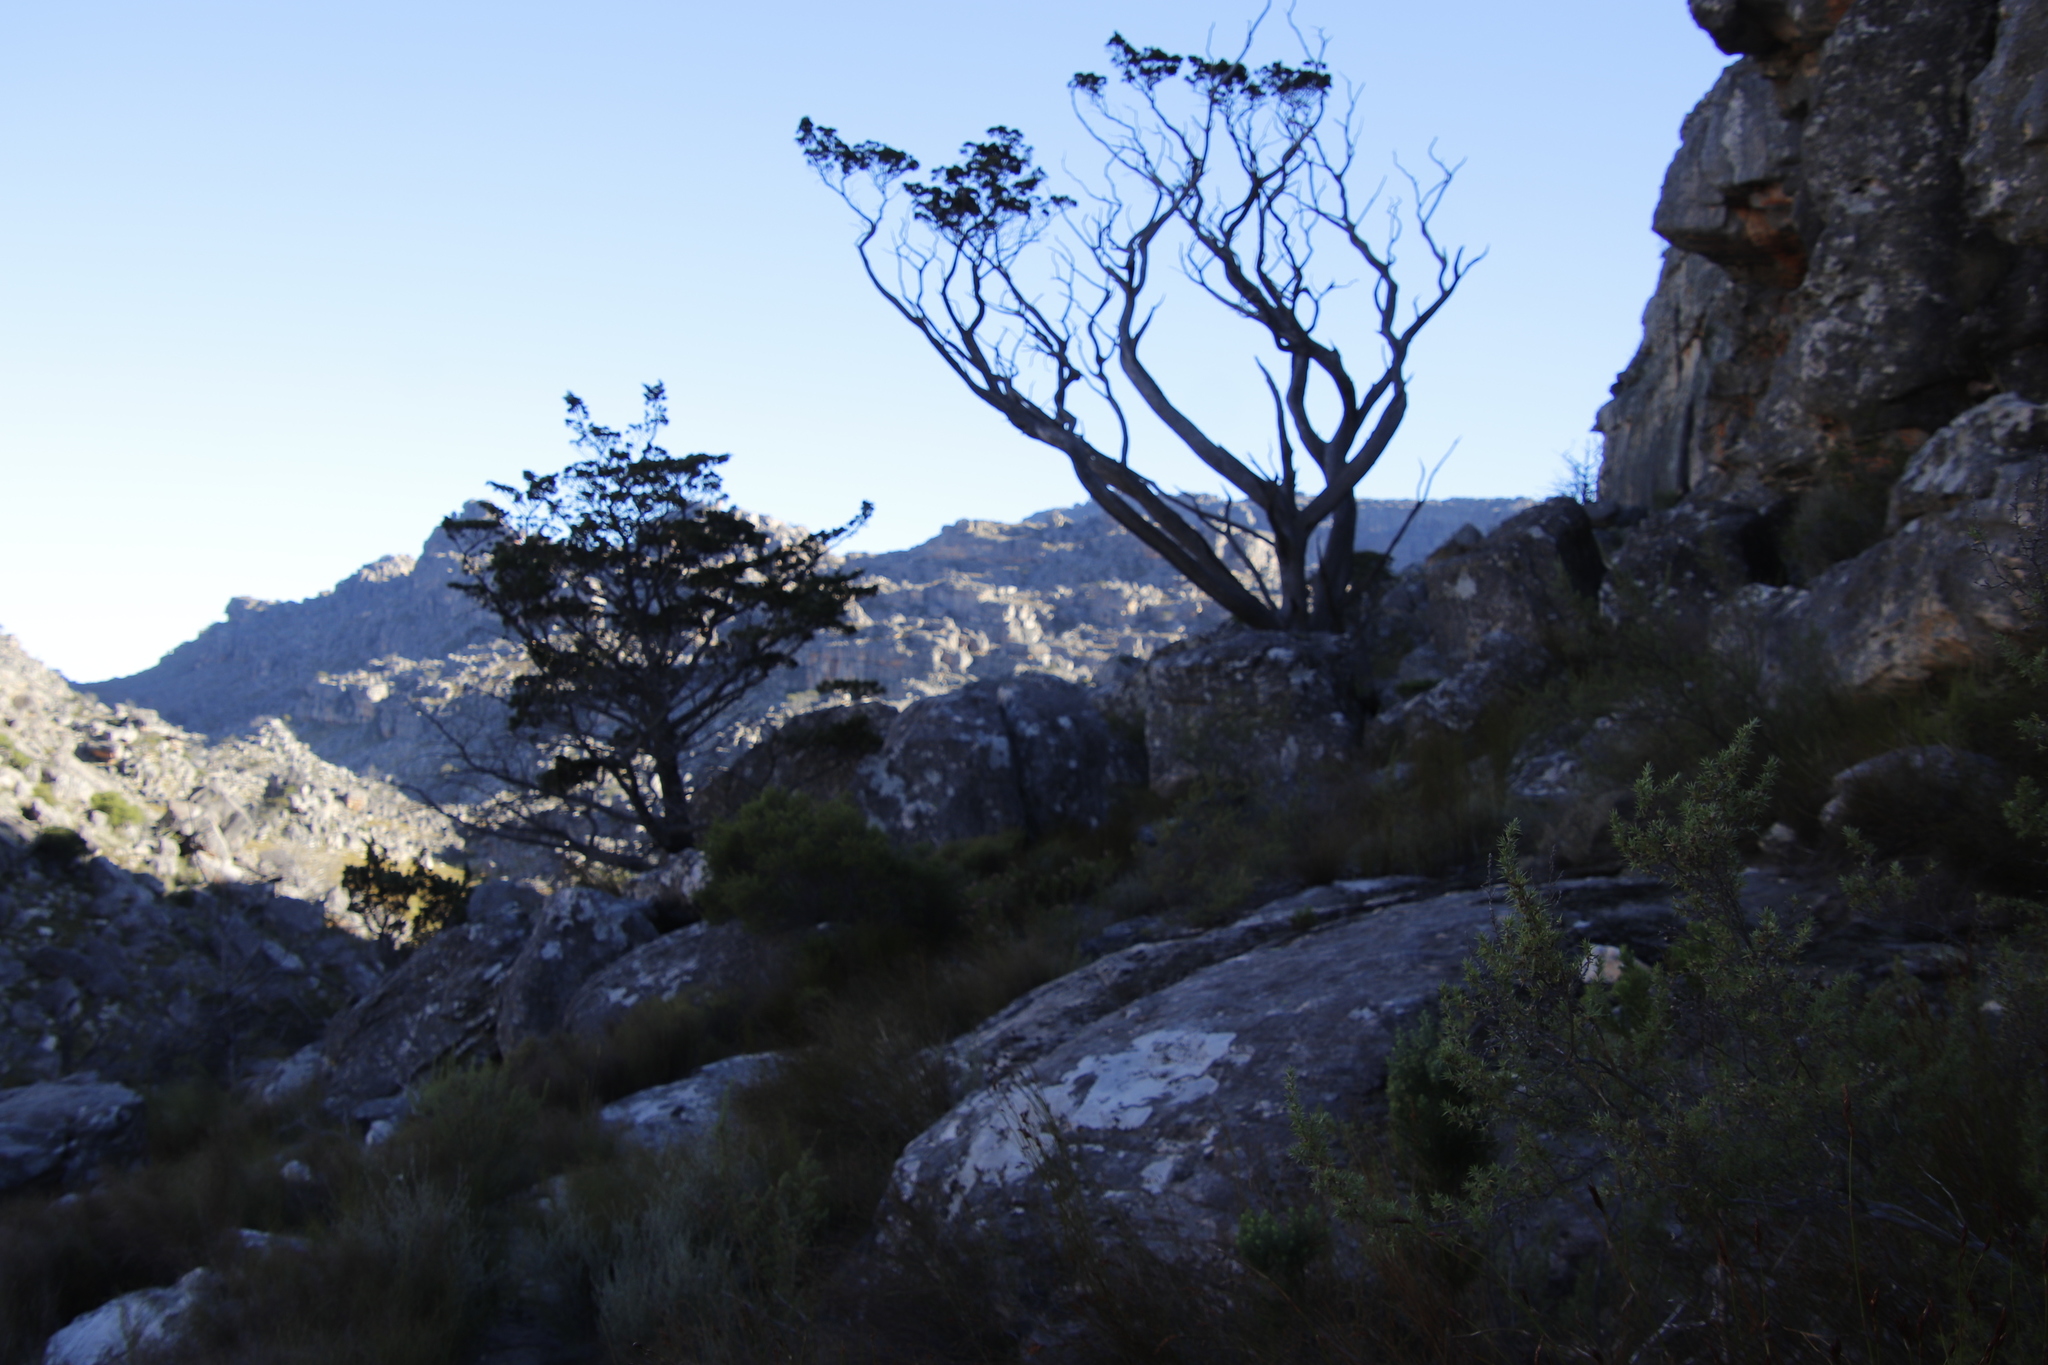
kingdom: Plantae
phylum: Tracheophyta
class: Pinopsida
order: Pinales
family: Cupressaceae
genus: Widdringtonia
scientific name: Widdringtonia nodiflora
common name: Cape cypress
